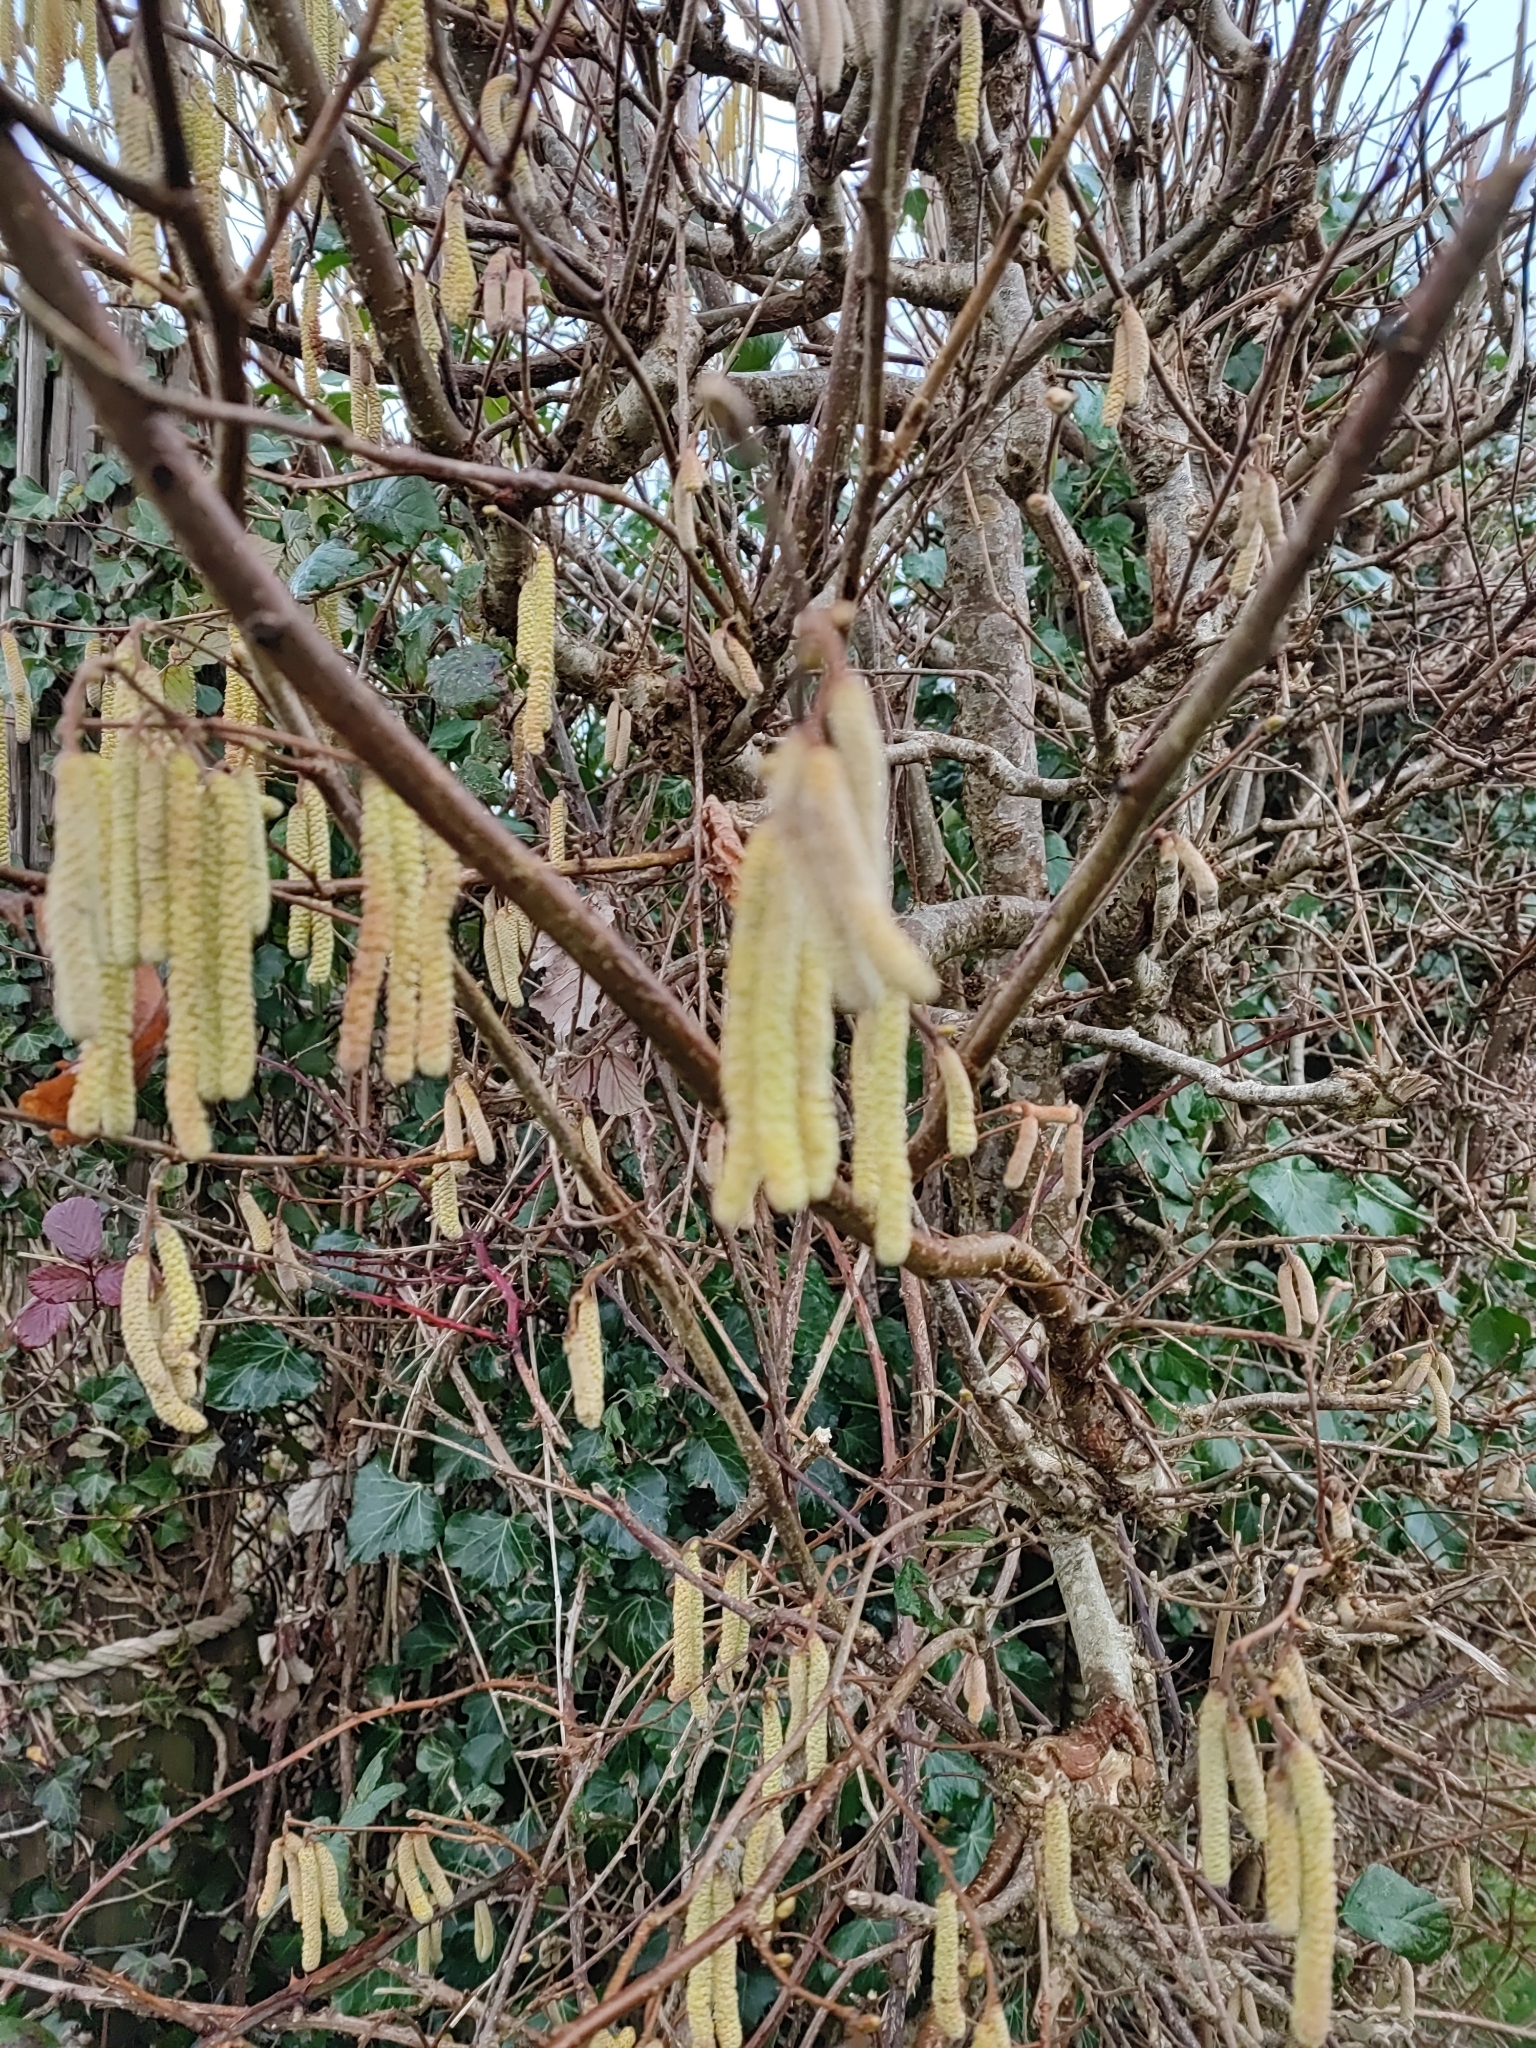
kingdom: Plantae
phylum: Tracheophyta
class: Magnoliopsida
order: Fagales
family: Betulaceae
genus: Corylus
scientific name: Corylus avellana
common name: European hazel
